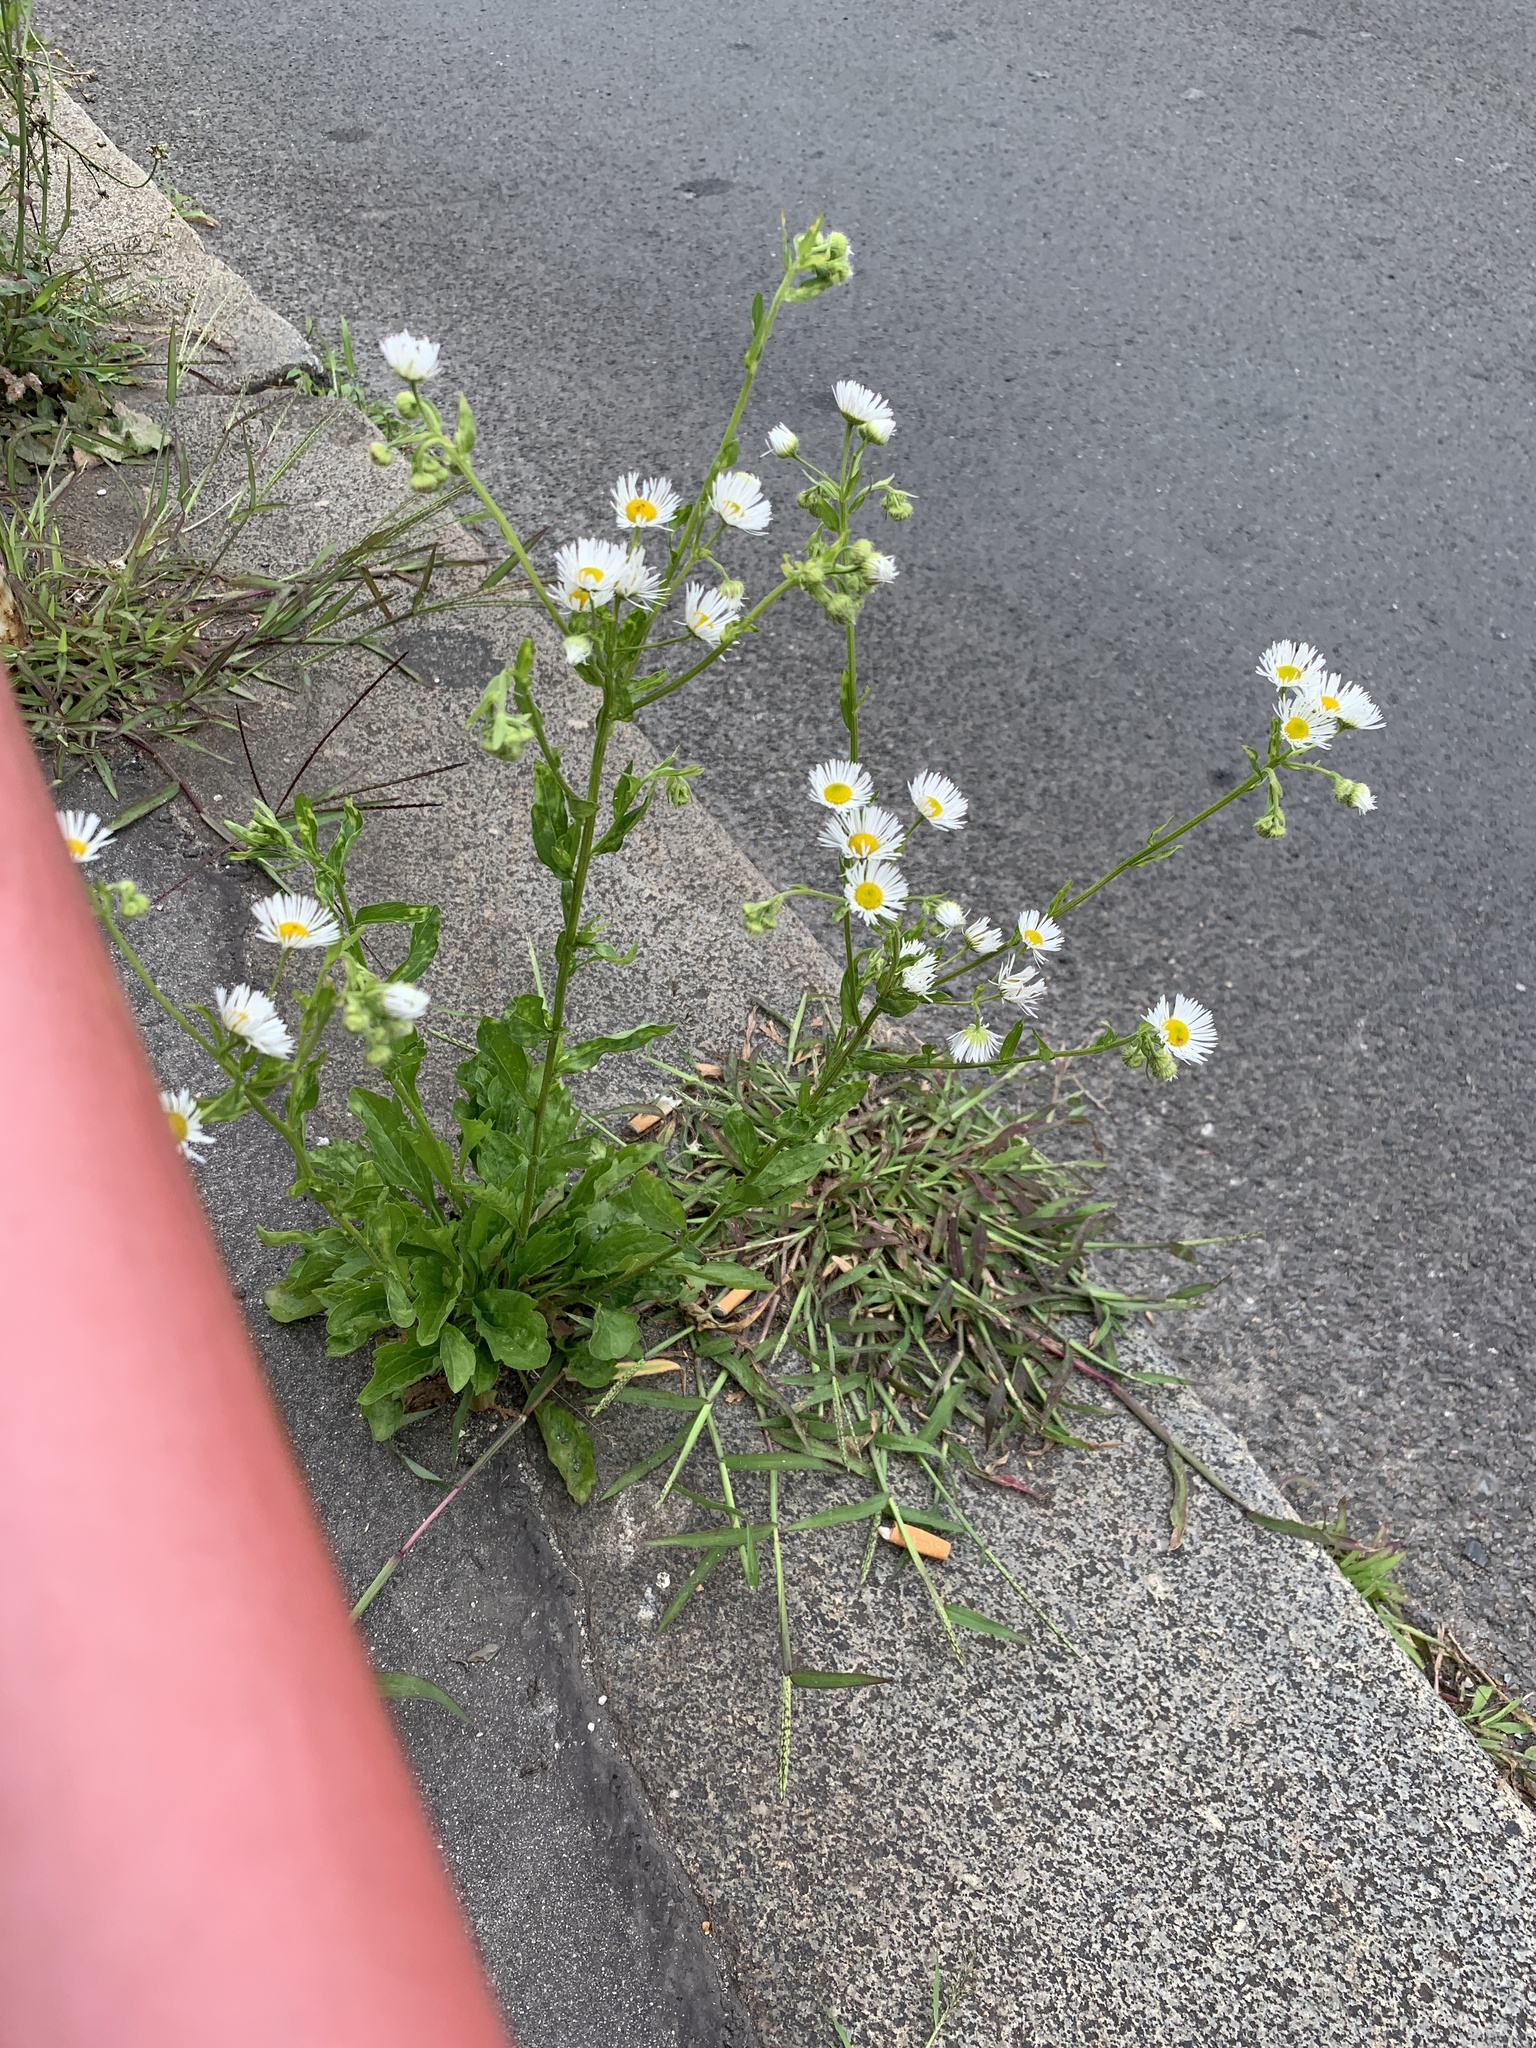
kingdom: Plantae
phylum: Tracheophyta
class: Magnoliopsida
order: Asterales
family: Asteraceae
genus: Erigeron
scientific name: Erigeron annuus
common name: Tall fleabane
